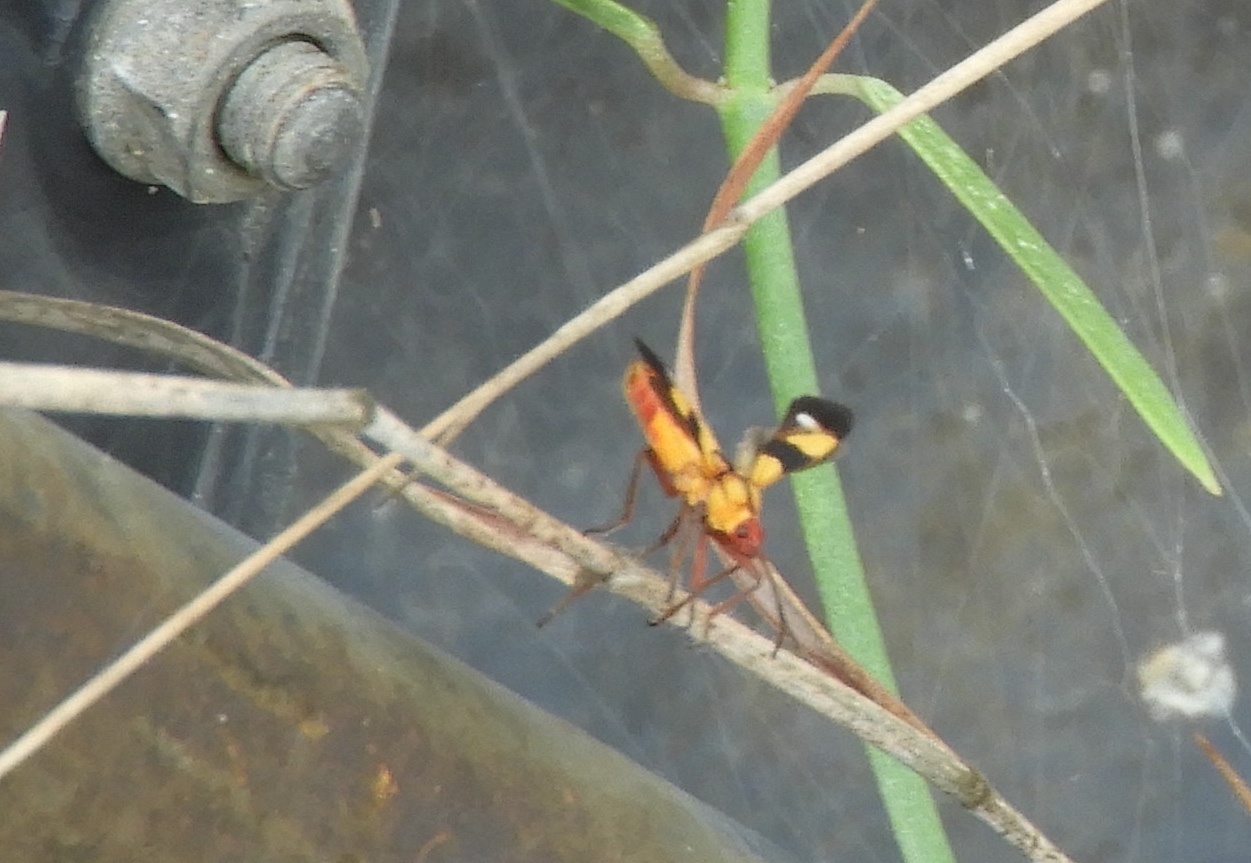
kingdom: Animalia
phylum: Arthropoda
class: Insecta
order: Hemiptera
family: Lygaeidae
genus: Oncopeltus
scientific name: Oncopeltus guttaloides
